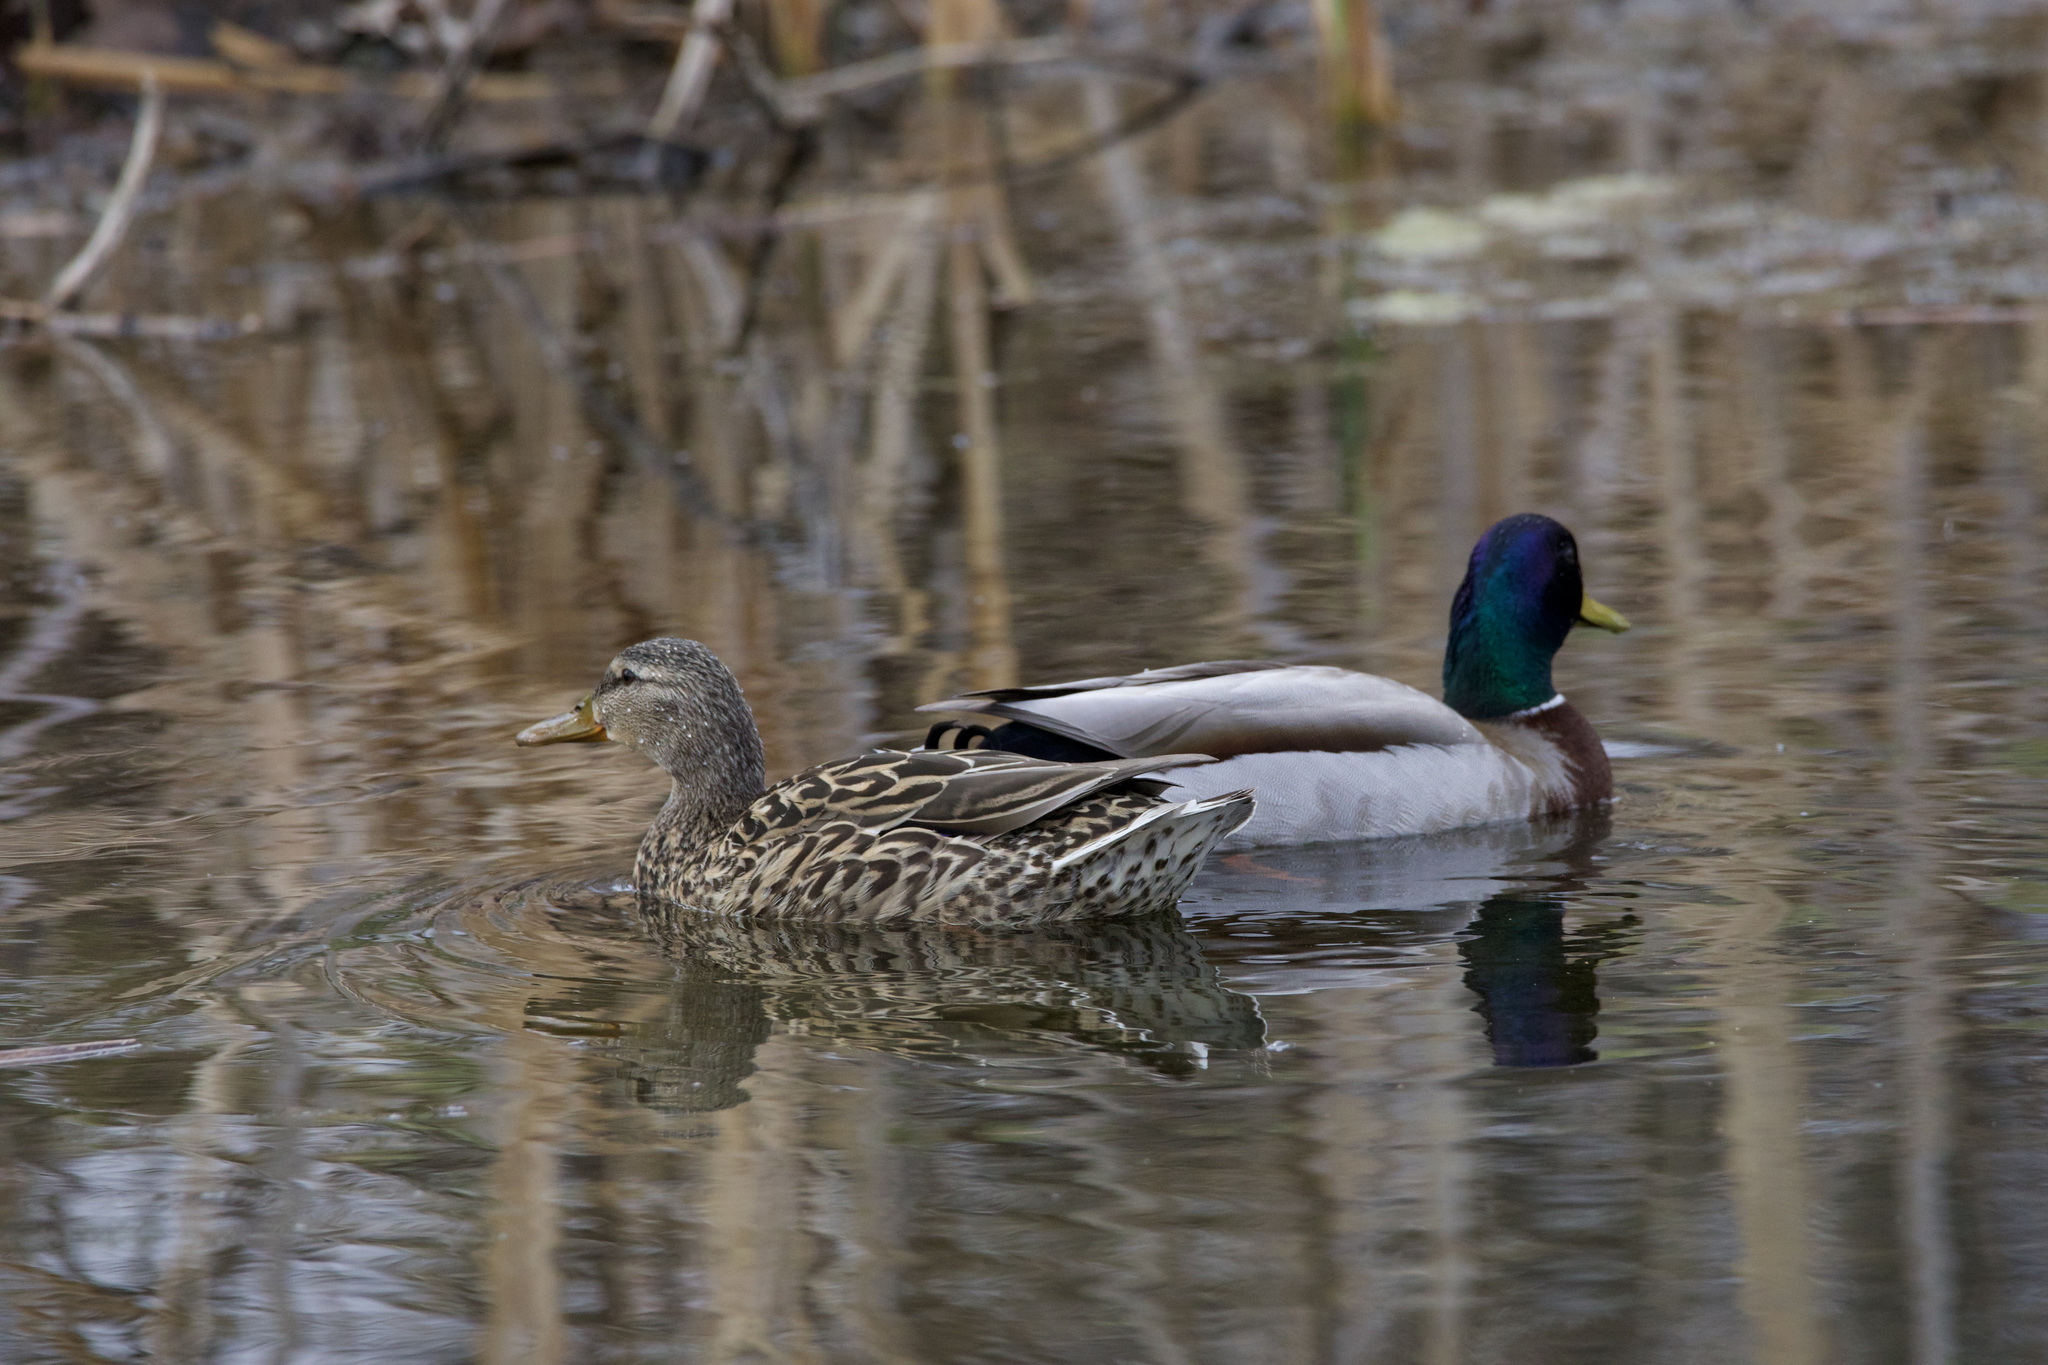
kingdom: Animalia
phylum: Chordata
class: Aves
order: Anseriformes
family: Anatidae
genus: Anas
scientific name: Anas platyrhynchos
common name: Mallard
